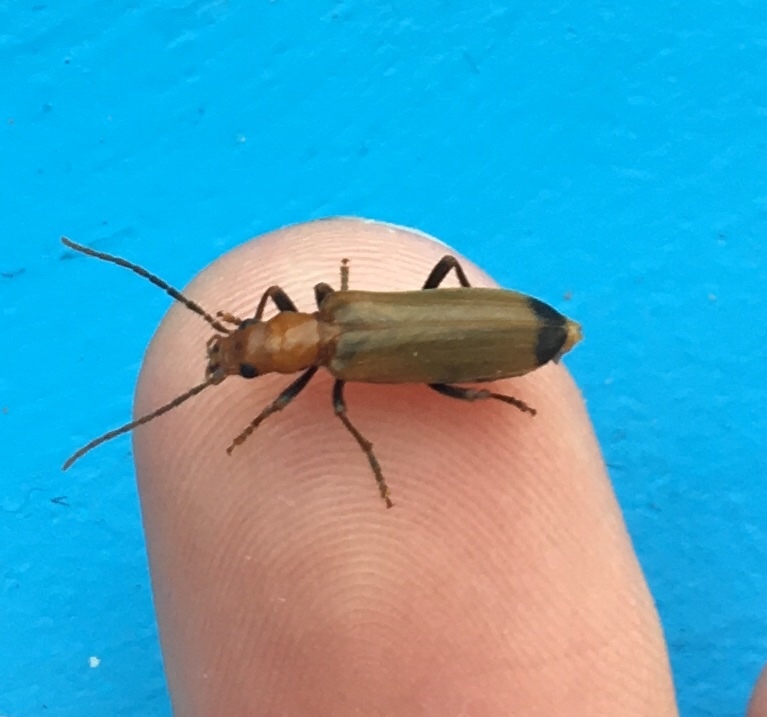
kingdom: Animalia
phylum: Arthropoda
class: Insecta
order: Coleoptera
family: Oedemeridae
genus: Nacerdes
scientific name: Nacerdes melanura
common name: Wharf borer
